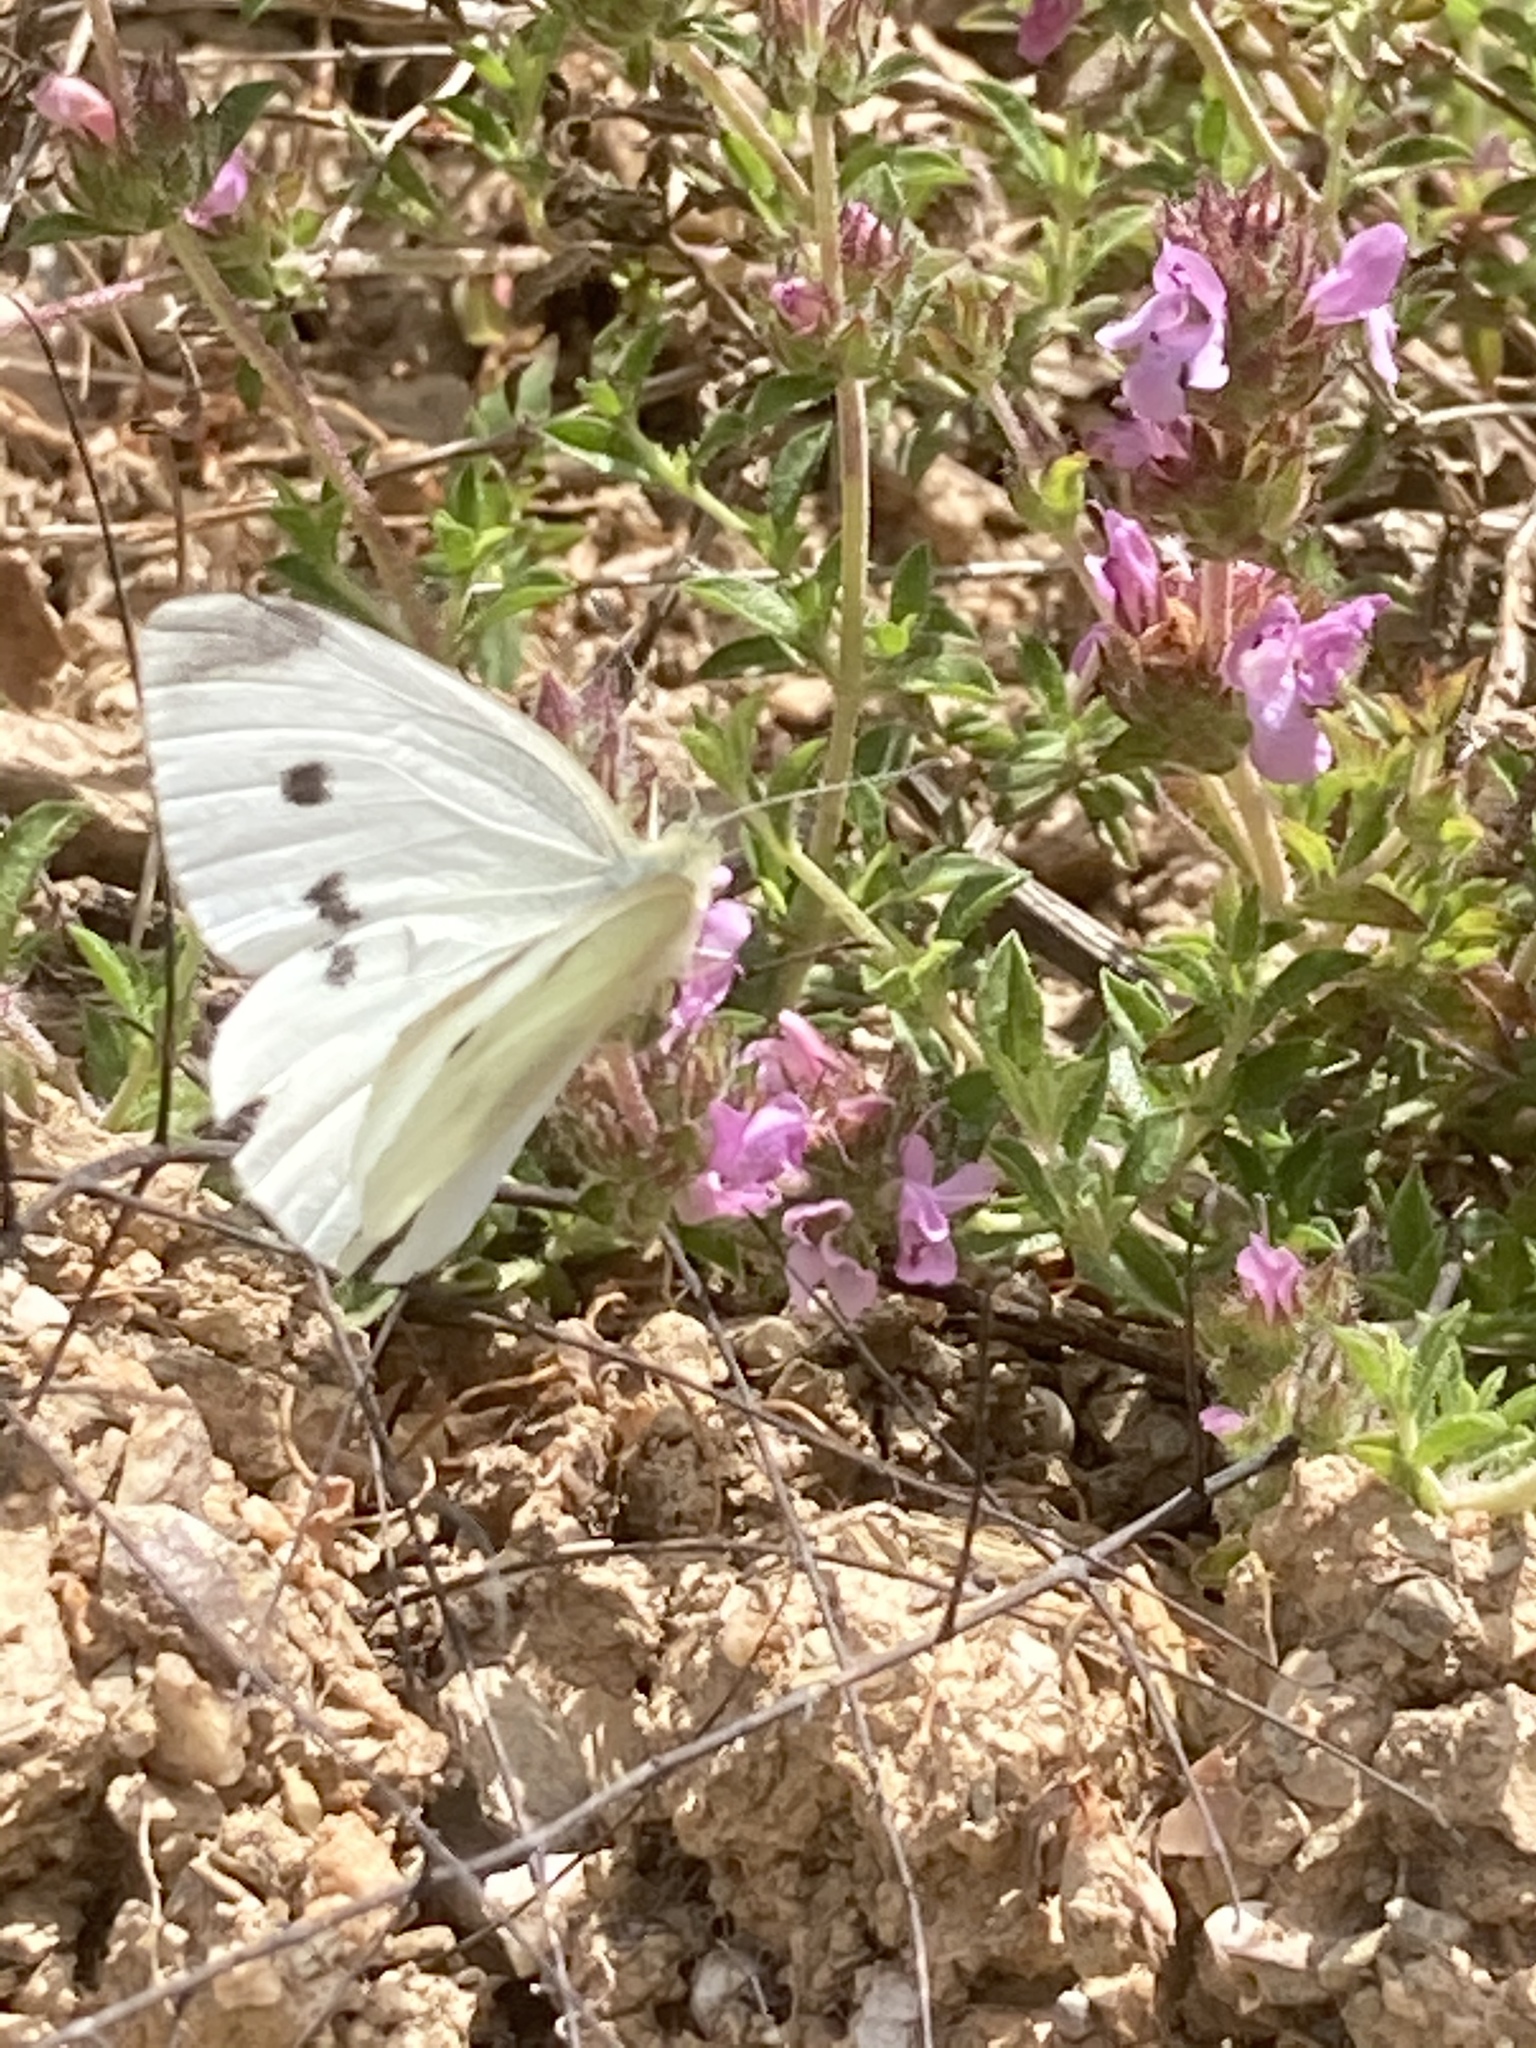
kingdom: Animalia
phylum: Arthropoda
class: Insecta
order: Lepidoptera
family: Pieridae
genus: Pieris
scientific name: Pieris rapae
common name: Small white
